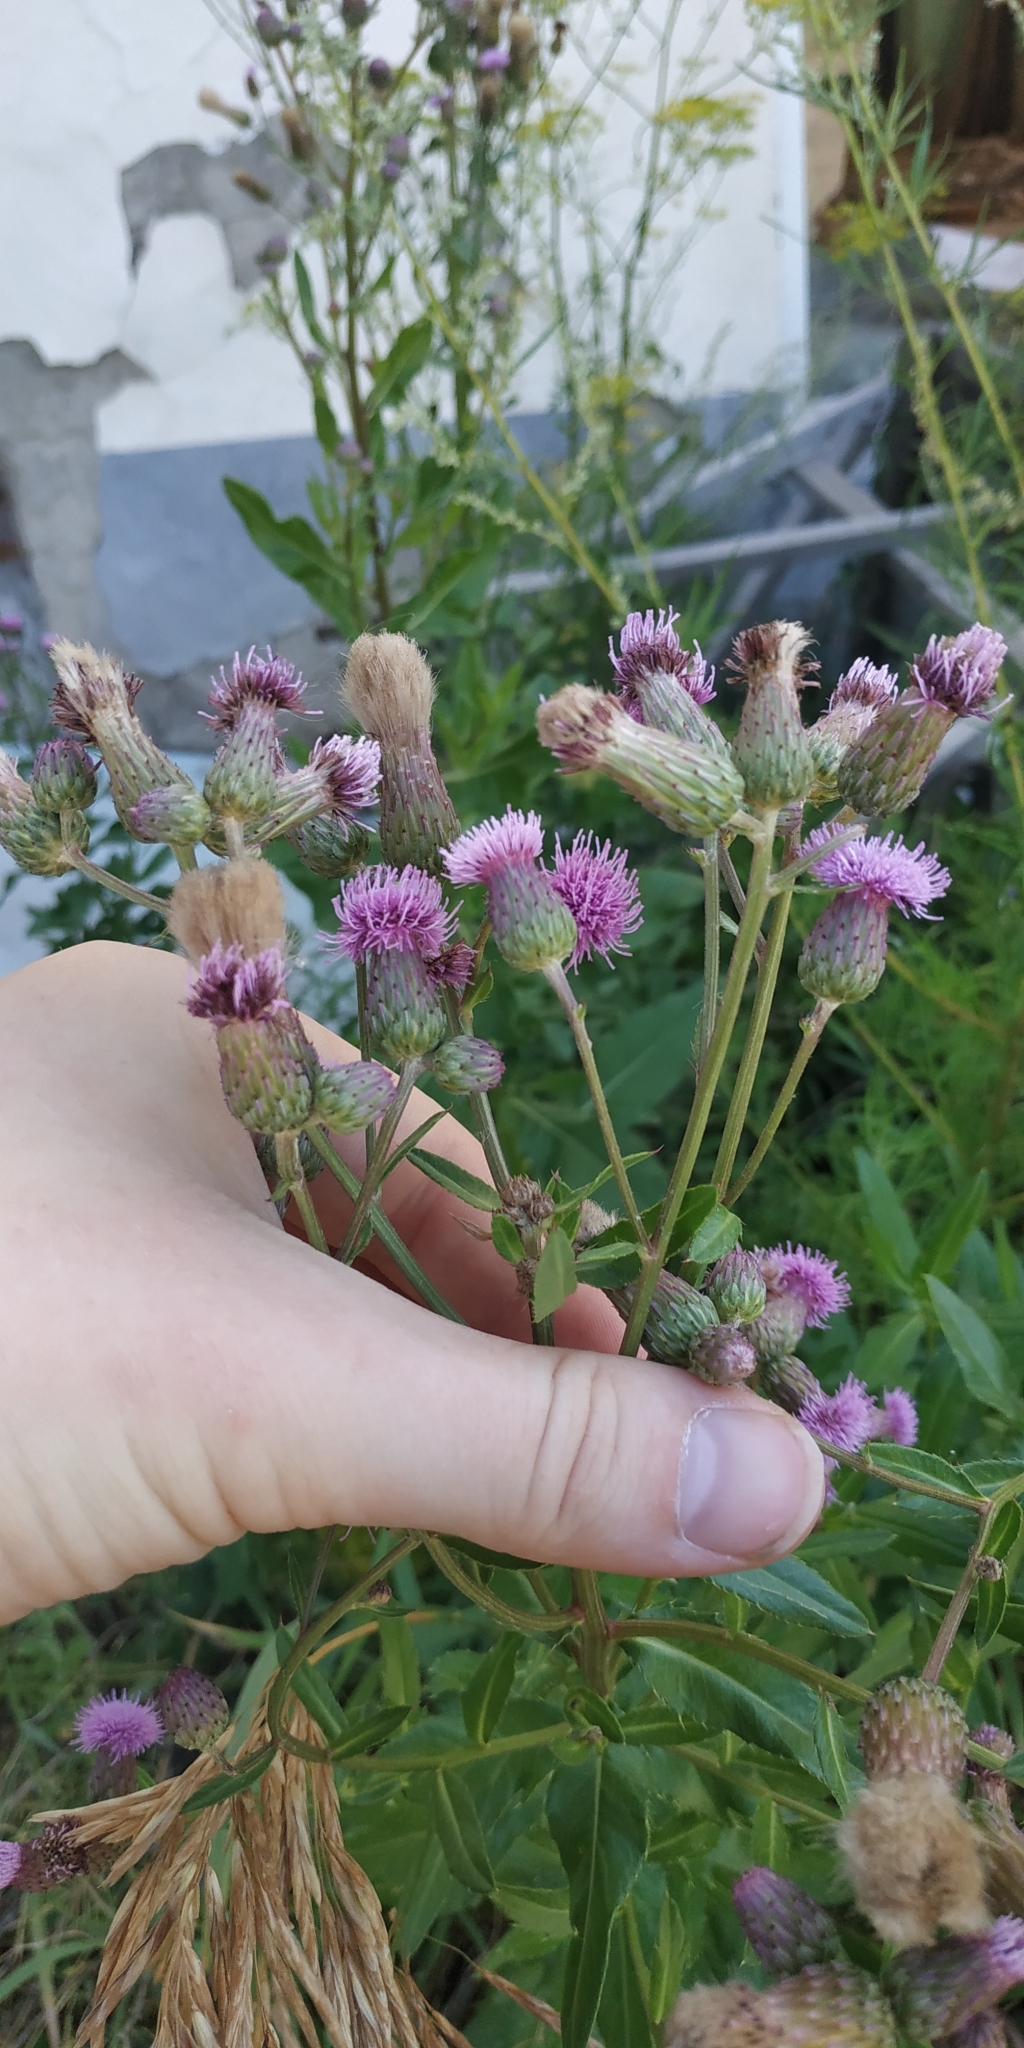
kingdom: Plantae
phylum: Tracheophyta
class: Magnoliopsida
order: Asterales
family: Asteraceae
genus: Cirsium
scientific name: Cirsium arvense
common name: Creeping thistle
